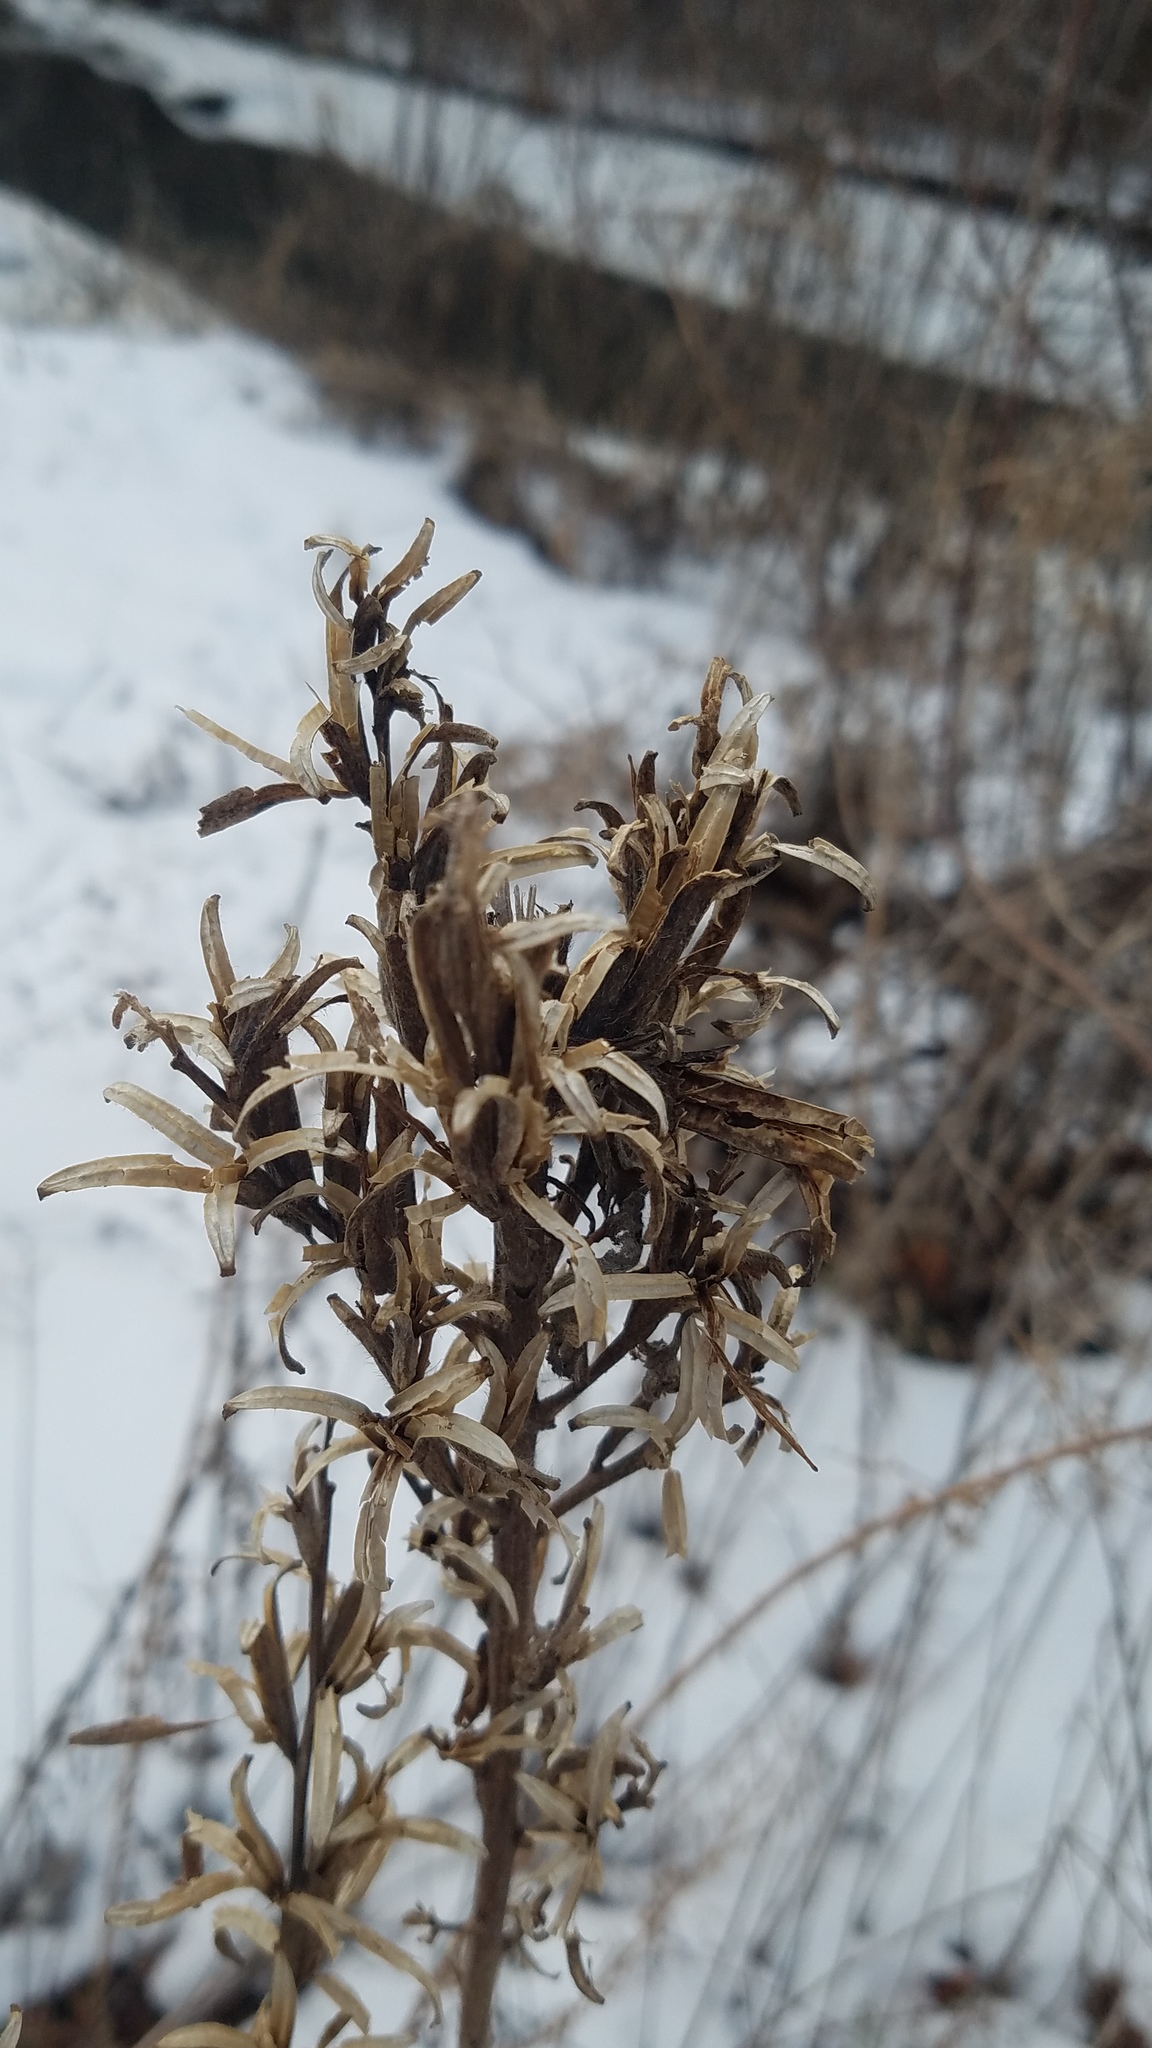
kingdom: Plantae
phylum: Tracheophyta
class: Magnoliopsida
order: Myrtales
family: Onagraceae
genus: Oenothera
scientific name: Oenothera biennis
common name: Common evening-primrose
